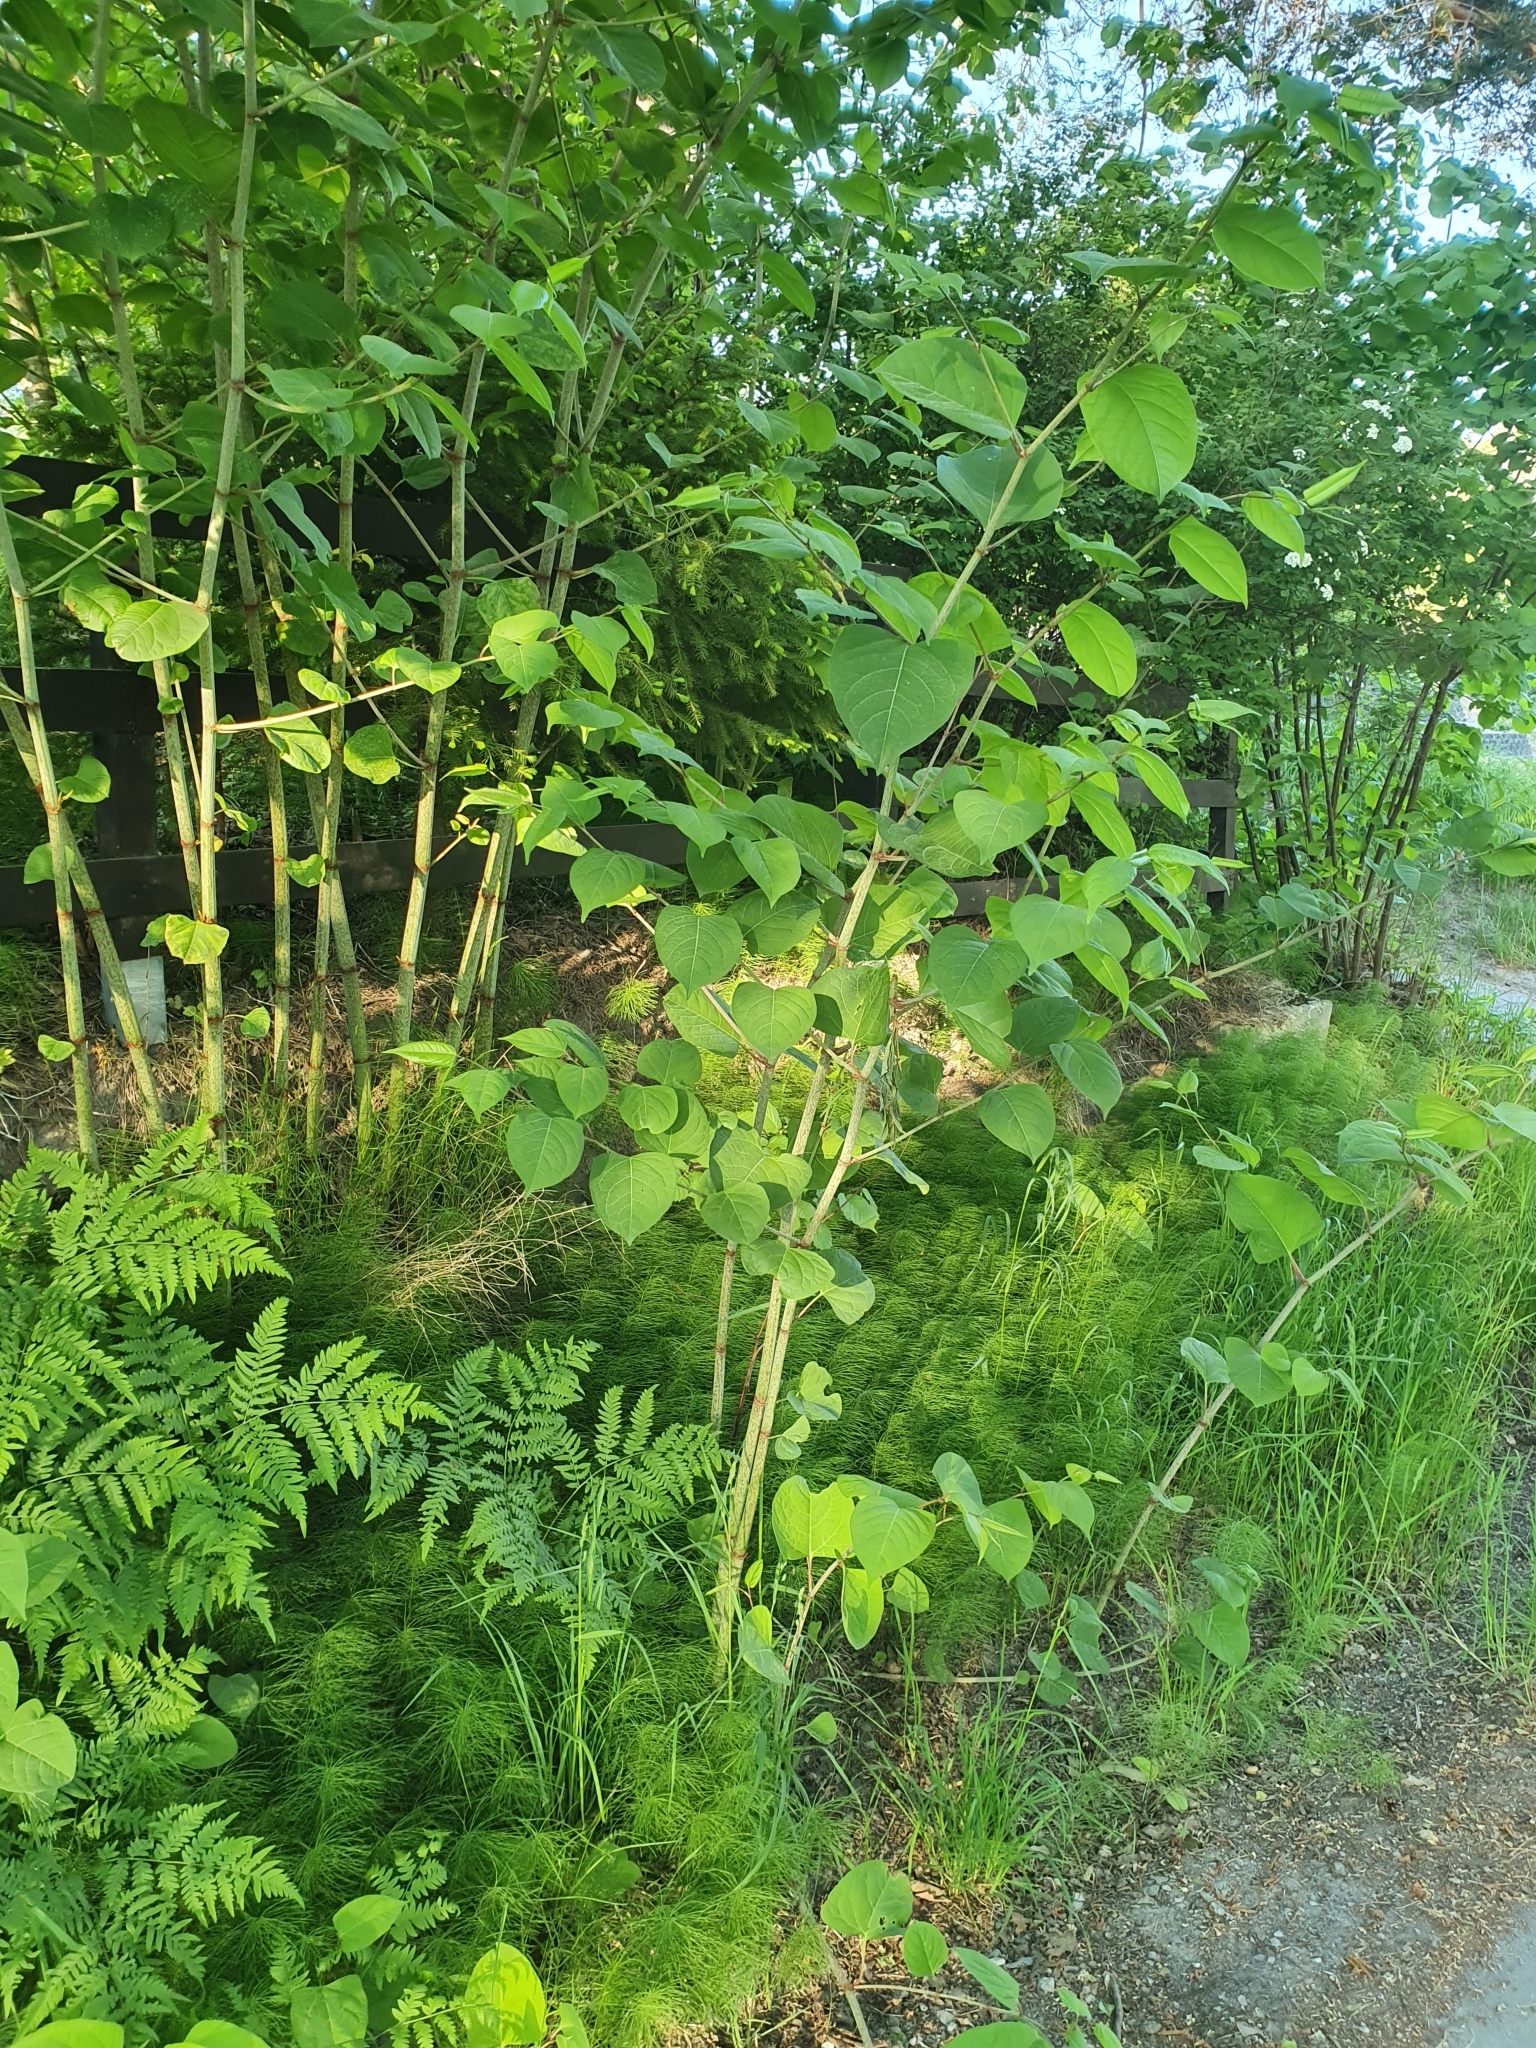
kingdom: Plantae
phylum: Tracheophyta
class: Magnoliopsida
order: Caryophyllales
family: Polygonaceae
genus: Reynoutria
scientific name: Reynoutria japonica
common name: Japanese knotweed
